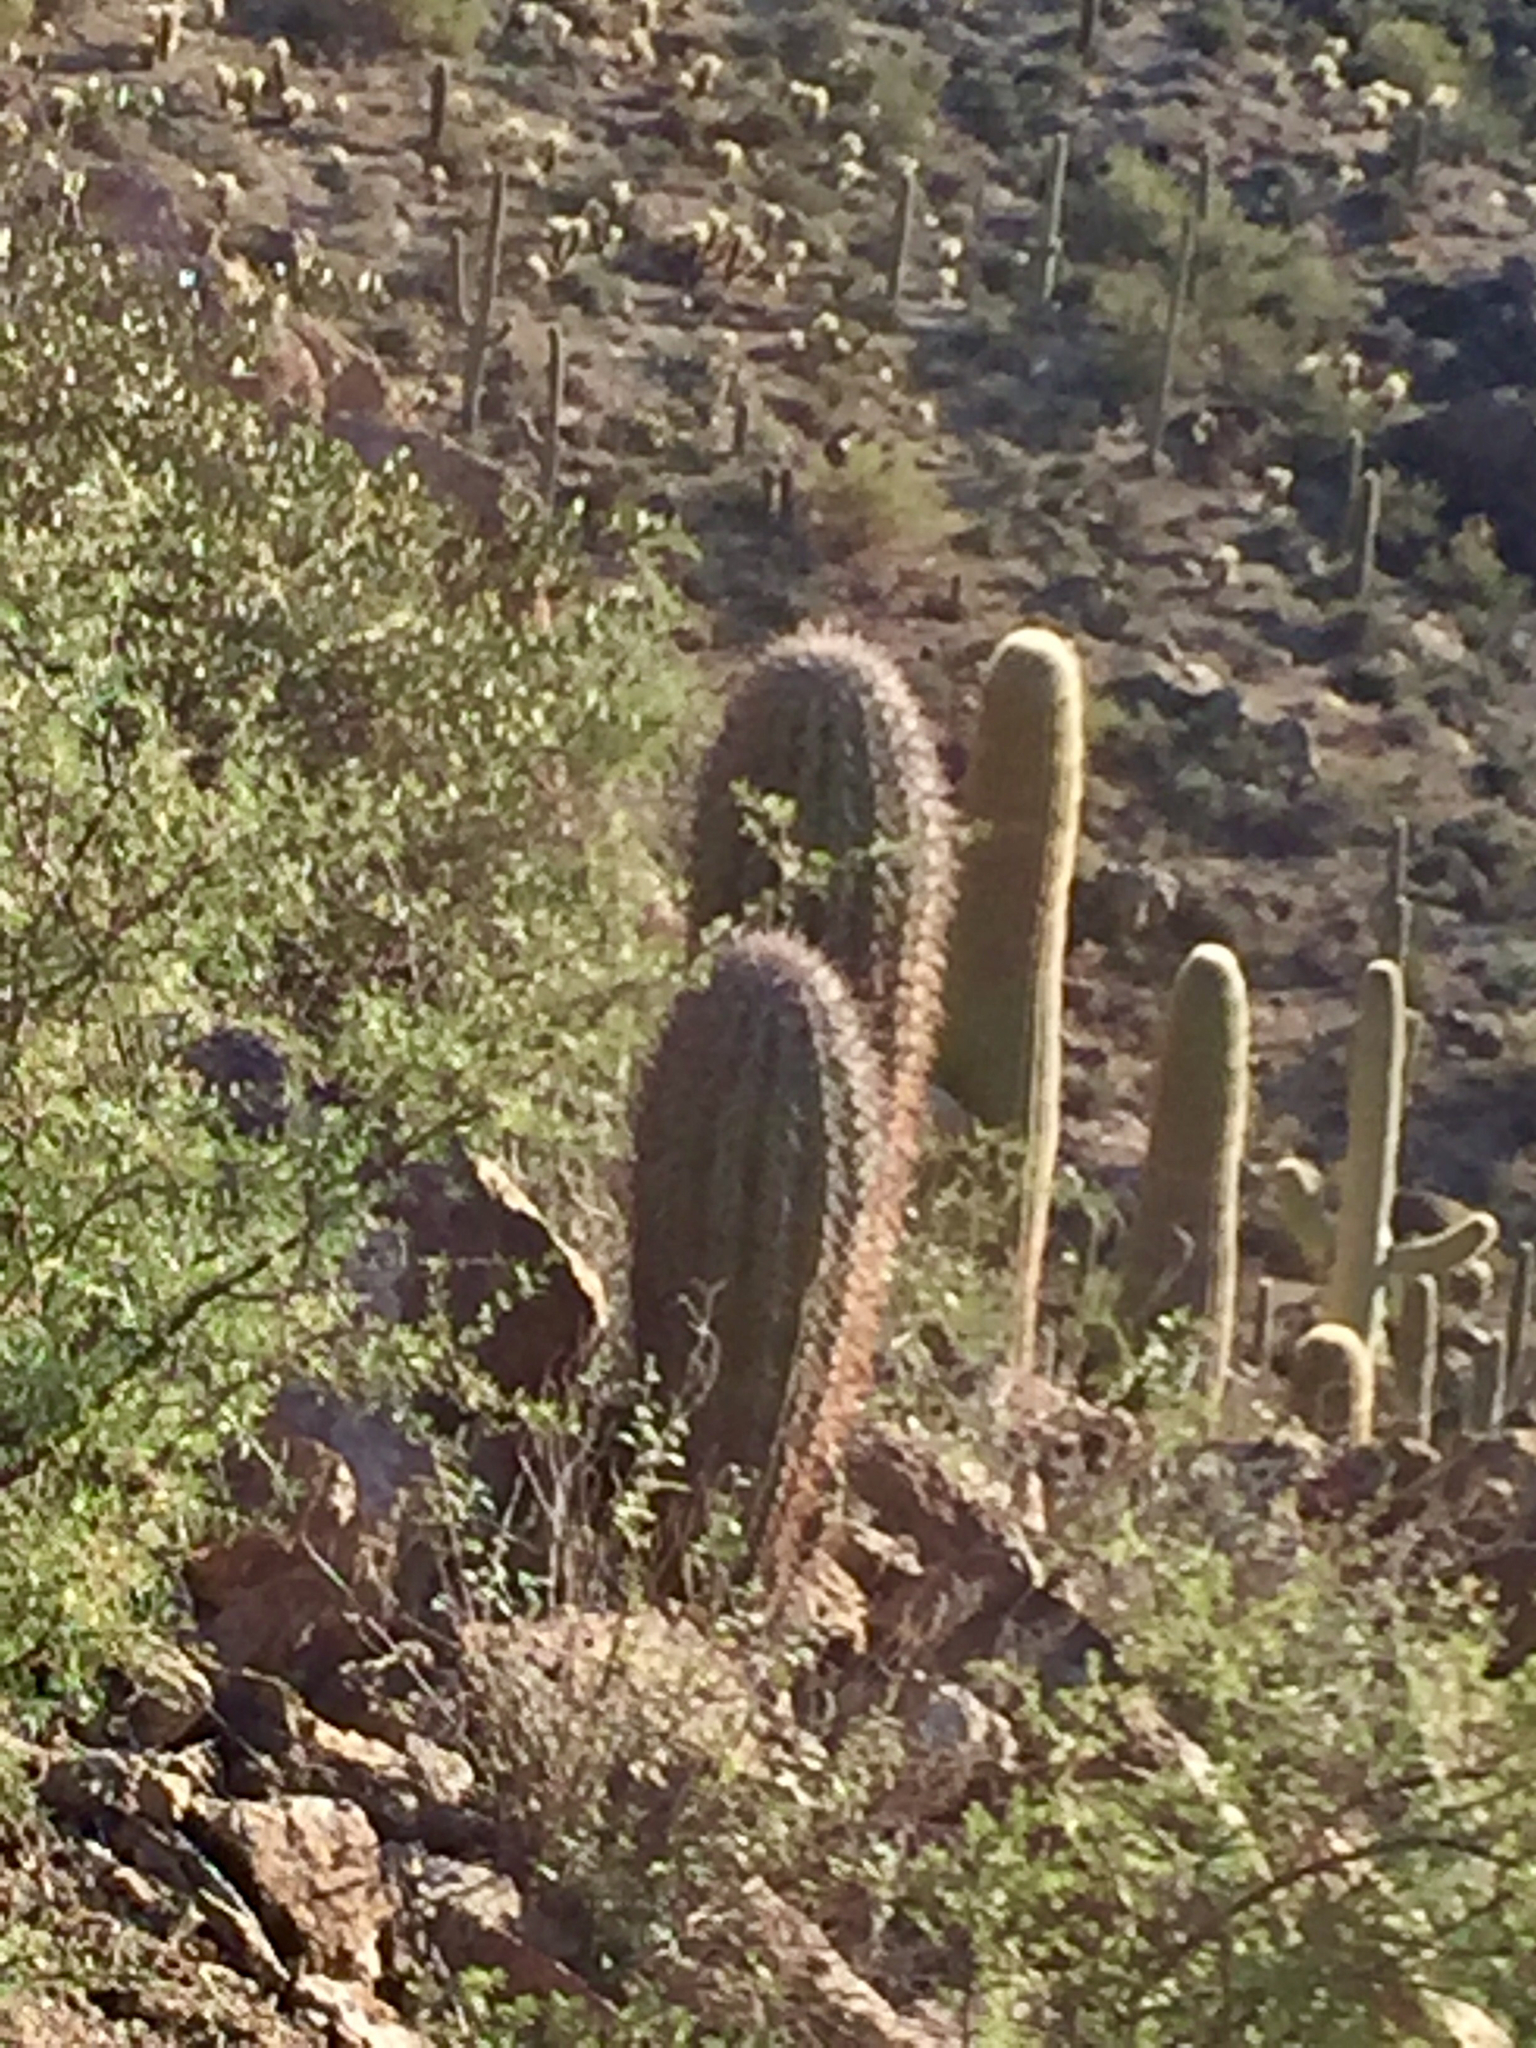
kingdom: Plantae
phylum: Tracheophyta
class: Magnoliopsida
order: Caryophyllales
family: Cactaceae
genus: Carnegiea
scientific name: Carnegiea gigantea
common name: Saguaro
